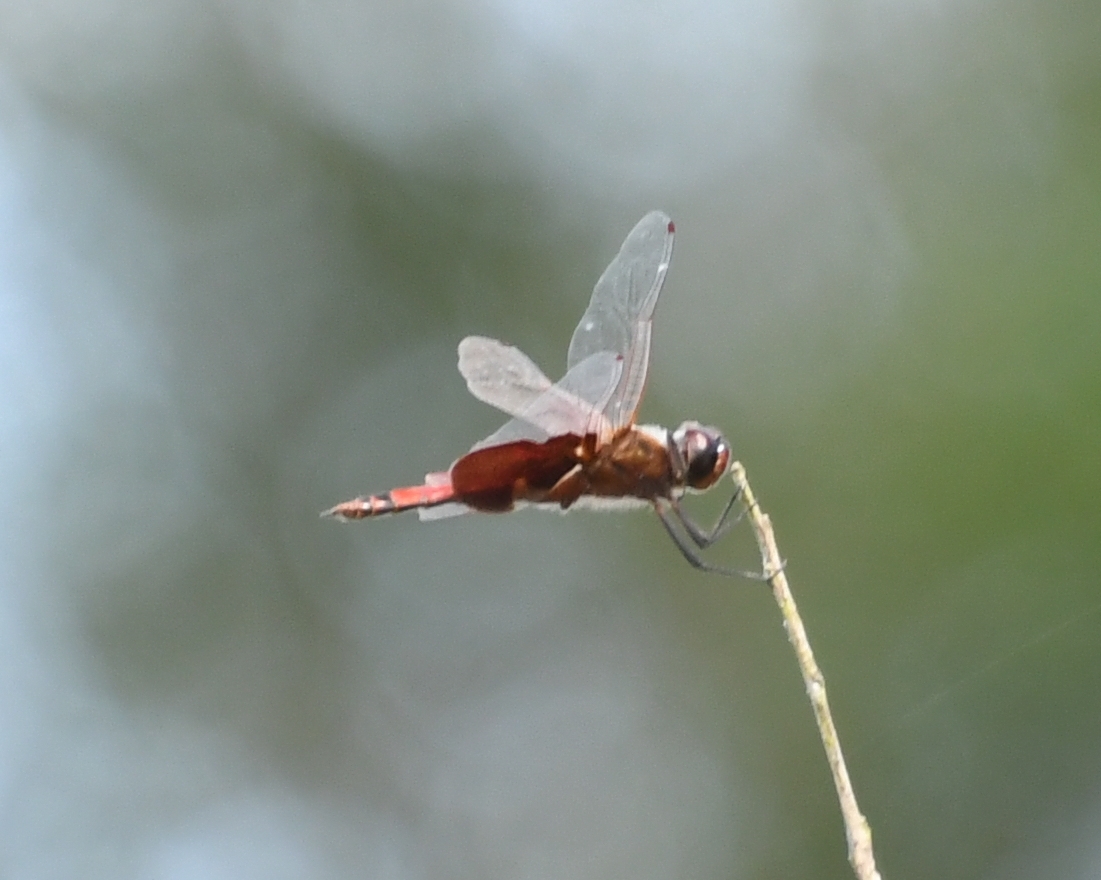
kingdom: Animalia
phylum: Arthropoda
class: Insecta
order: Odonata
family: Libellulidae
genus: Tramea
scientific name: Tramea carolina
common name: Carolina saddlebags
